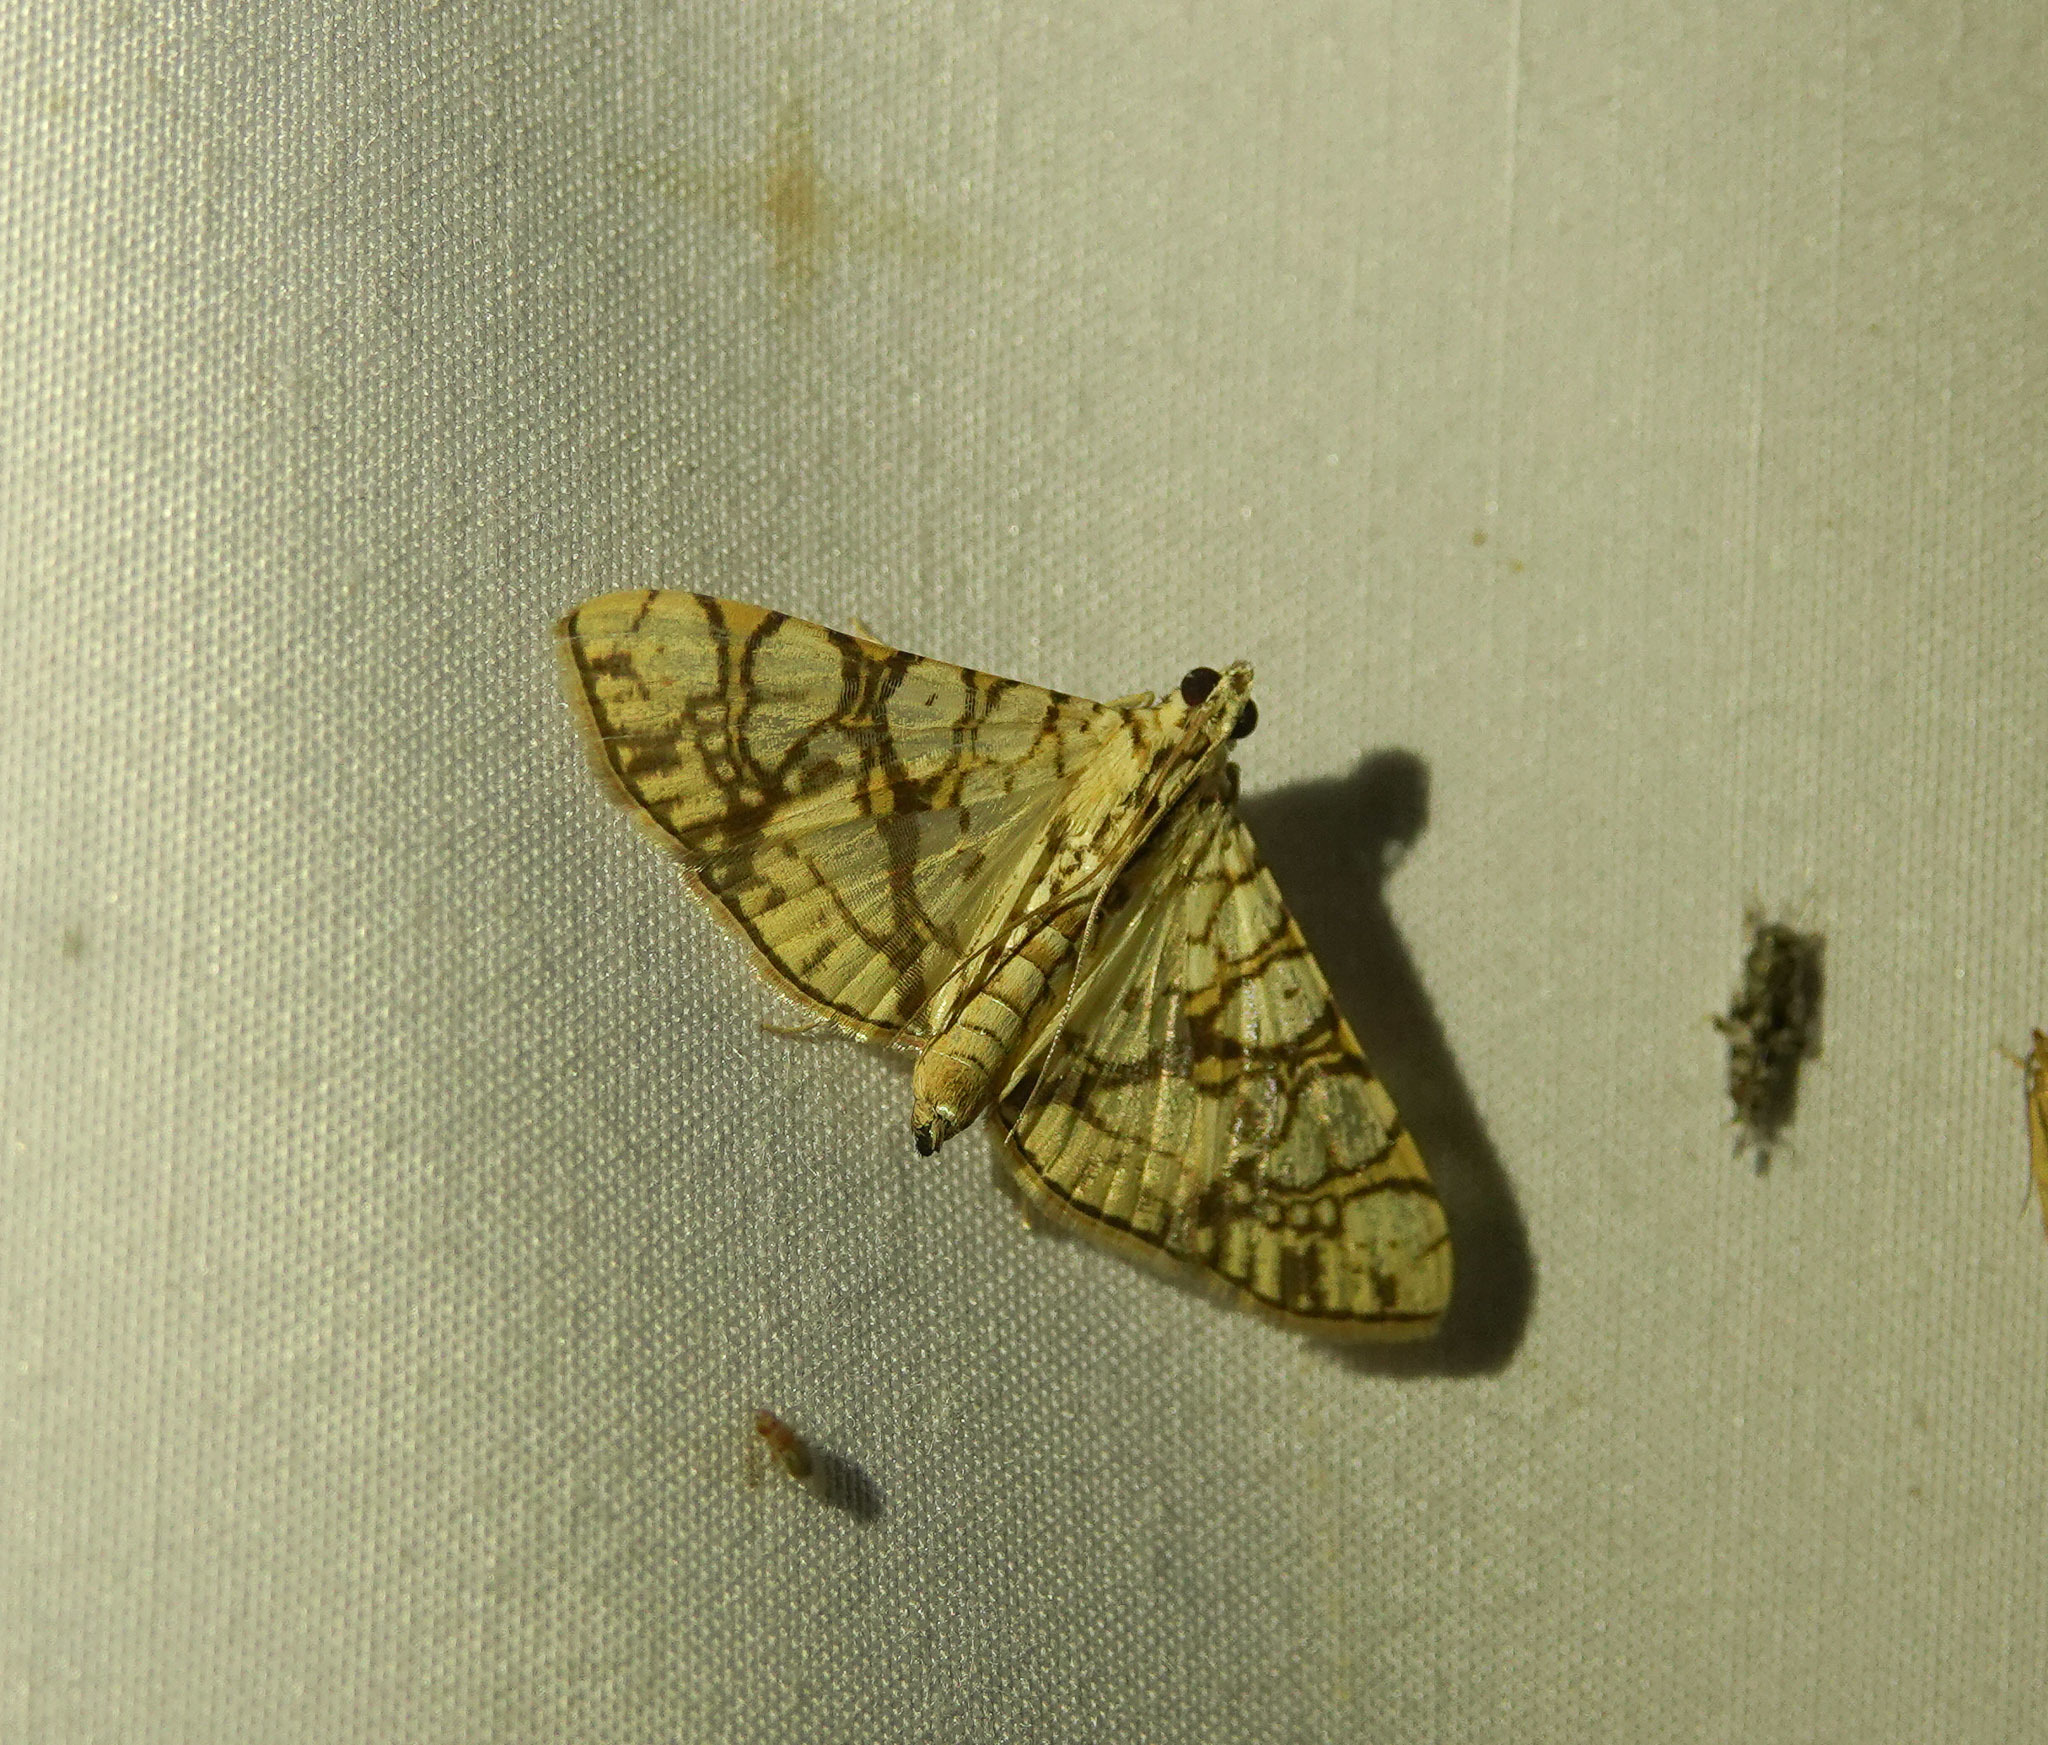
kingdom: Animalia
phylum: Arthropoda
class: Insecta
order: Lepidoptera
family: Crambidae
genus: Glyphodes
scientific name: Glyphodes caesalis
